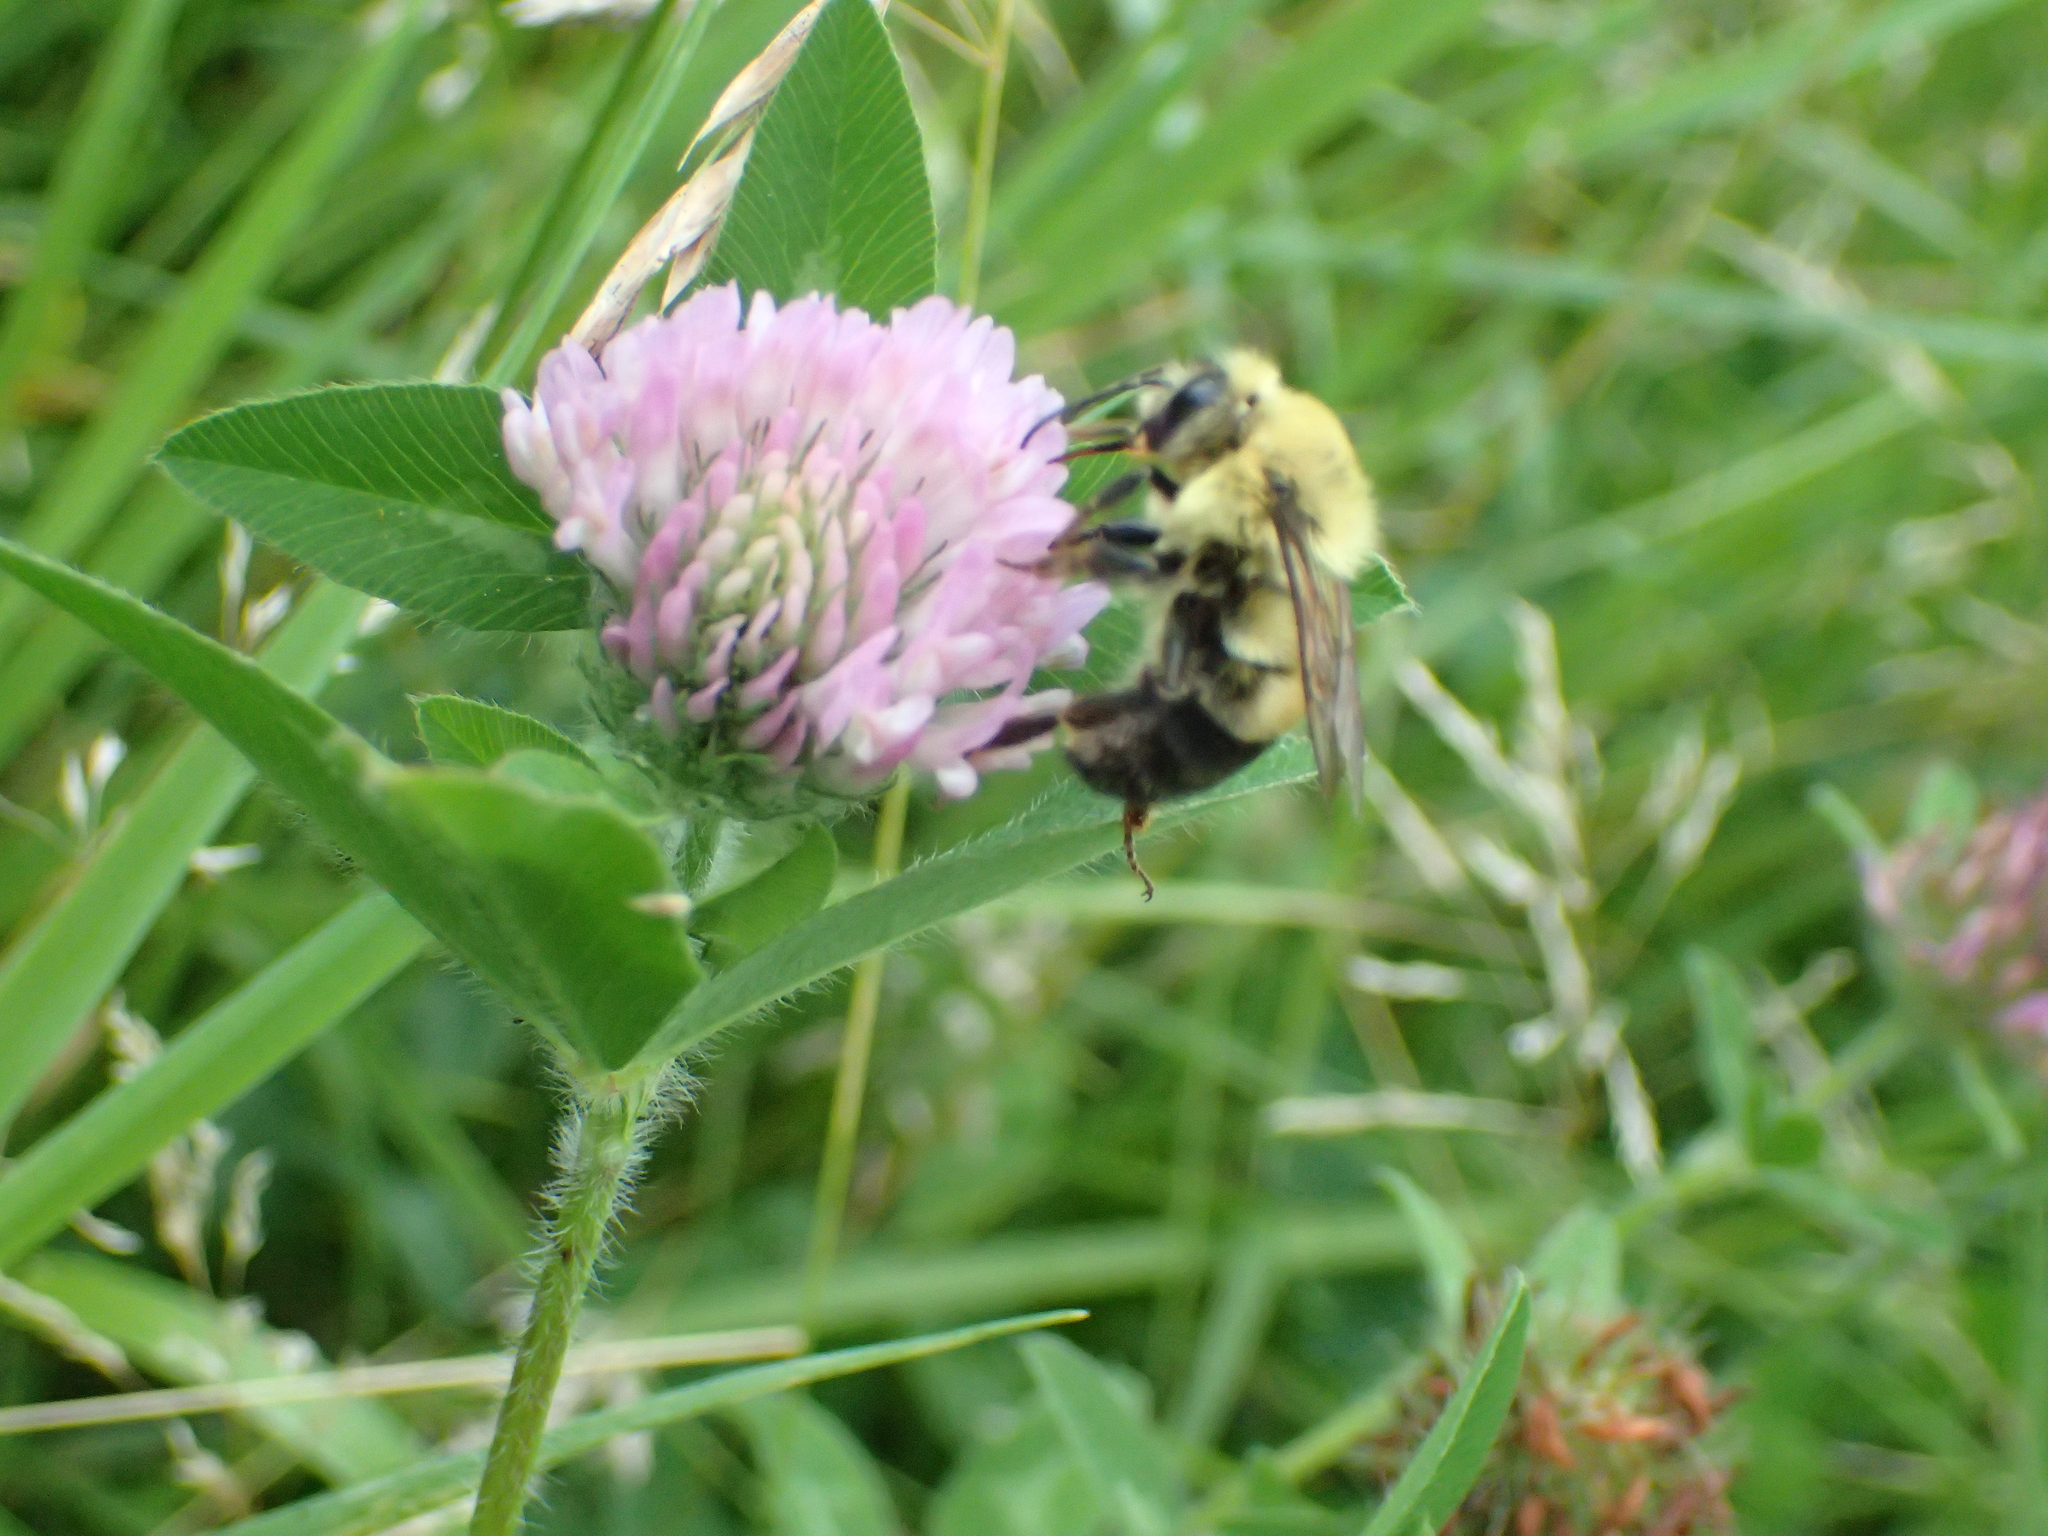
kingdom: Animalia
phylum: Arthropoda
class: Insecta
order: Hymenoptera
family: Apidae
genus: Bombus
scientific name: Bombus bimaculatus
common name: Two-spotted bumble bee
